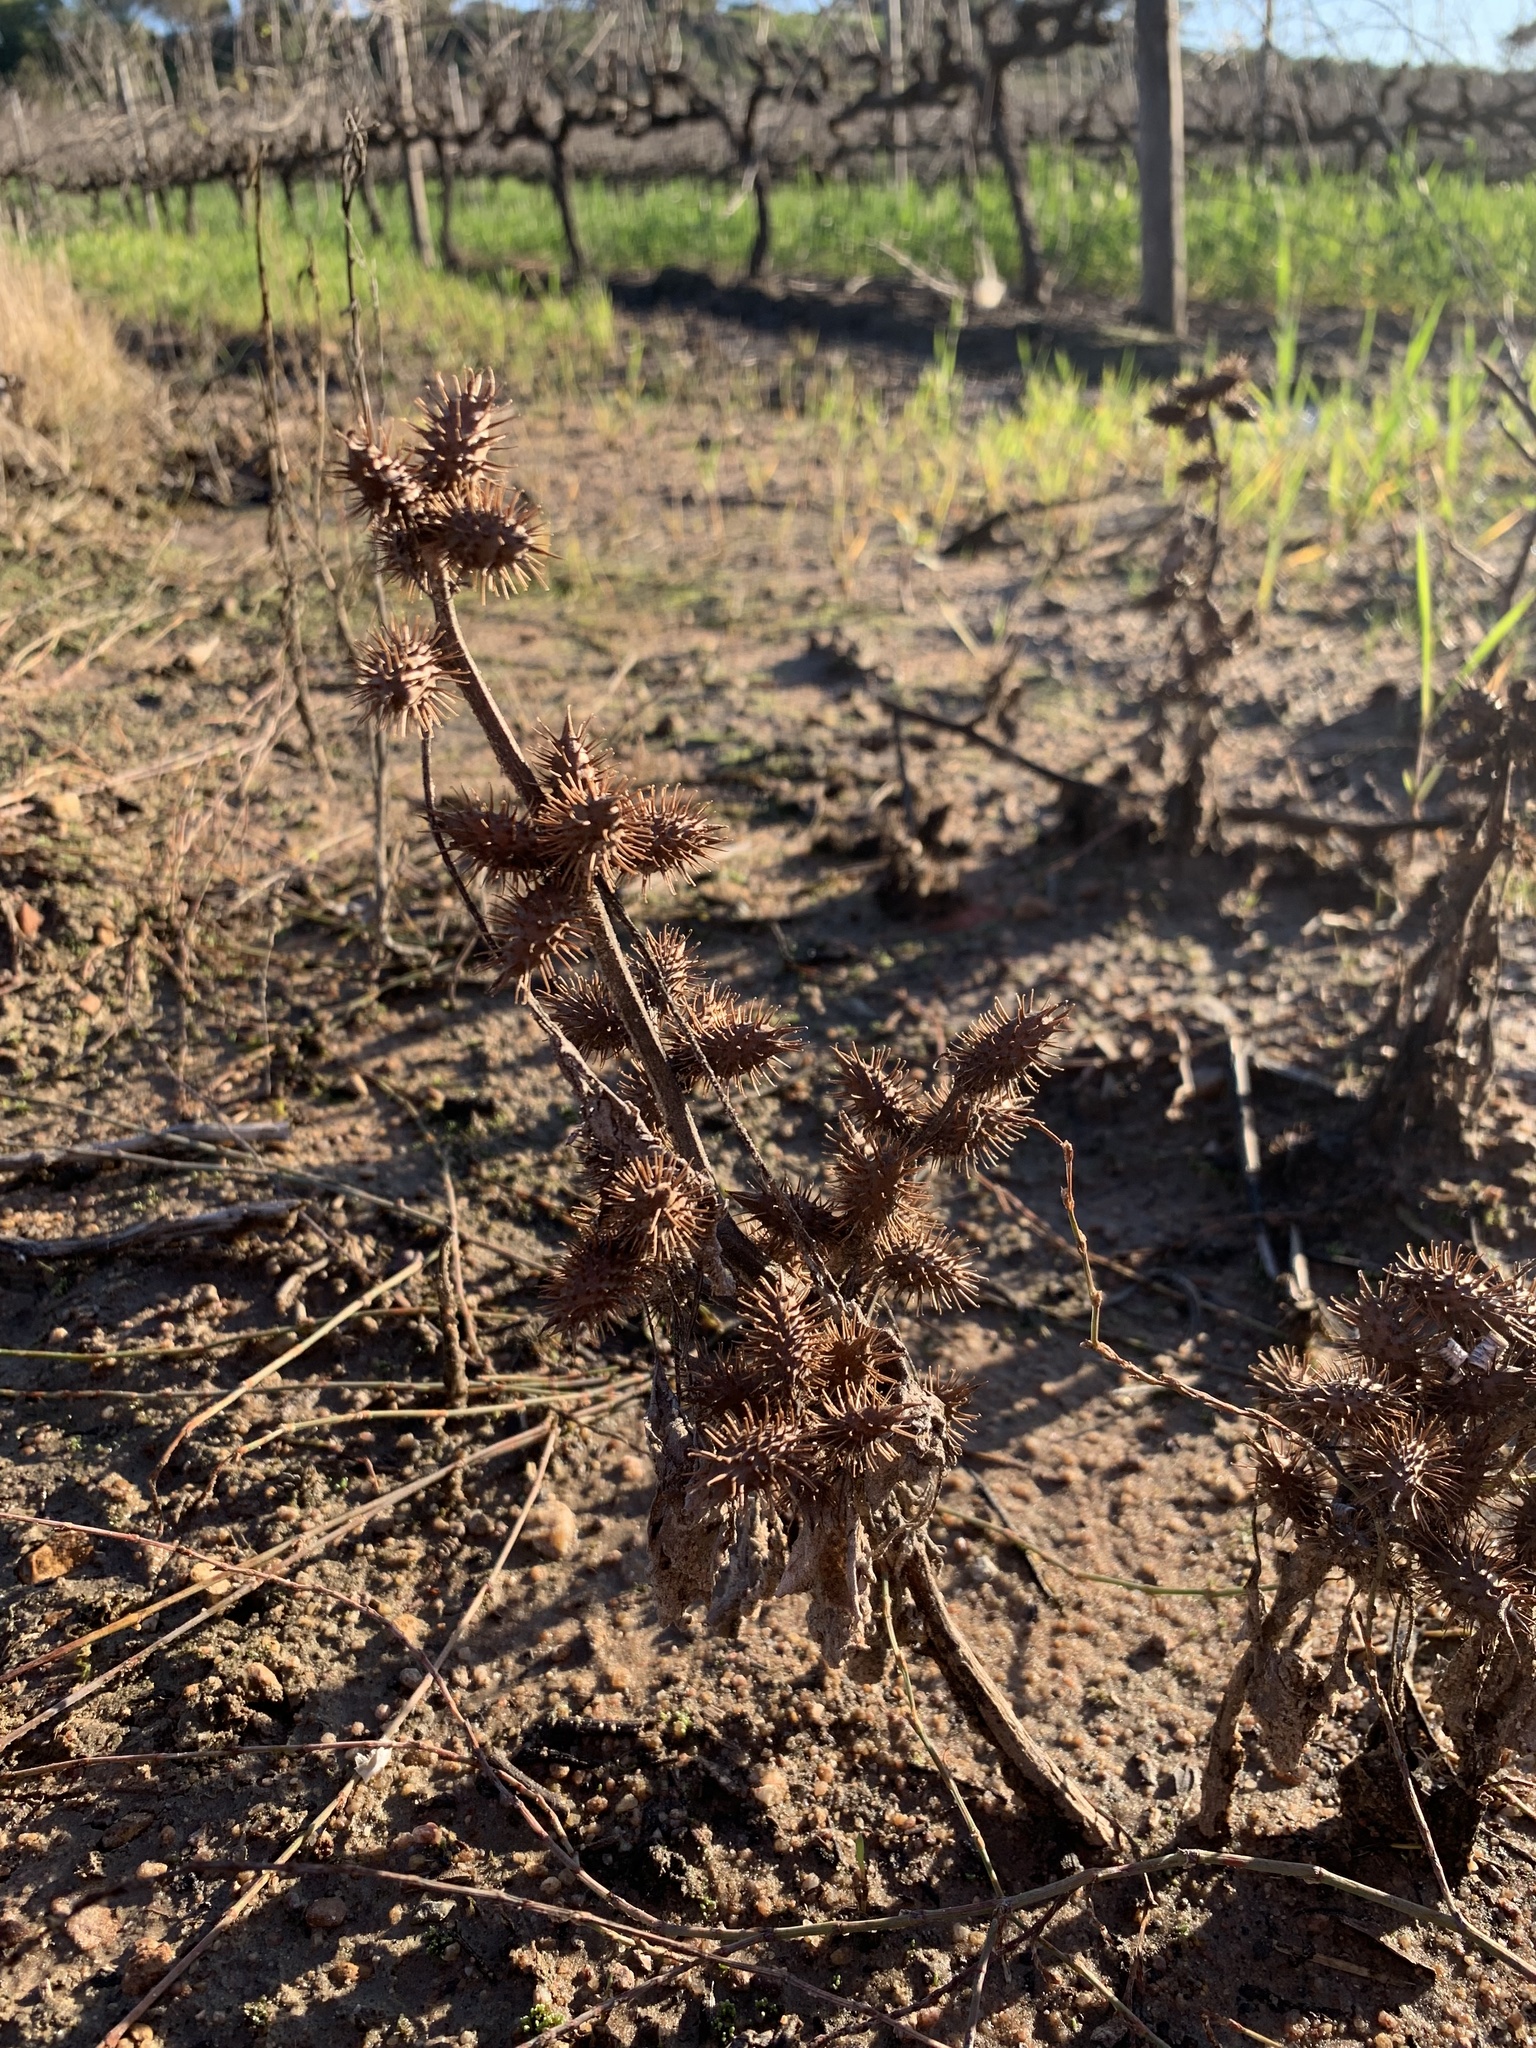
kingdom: Plantae
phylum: Tracheophyta
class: Magnoliopsida
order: Asterales
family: Asteraceae
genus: Xanthium
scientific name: Xanthium strumarium
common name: Rough cocklebur
